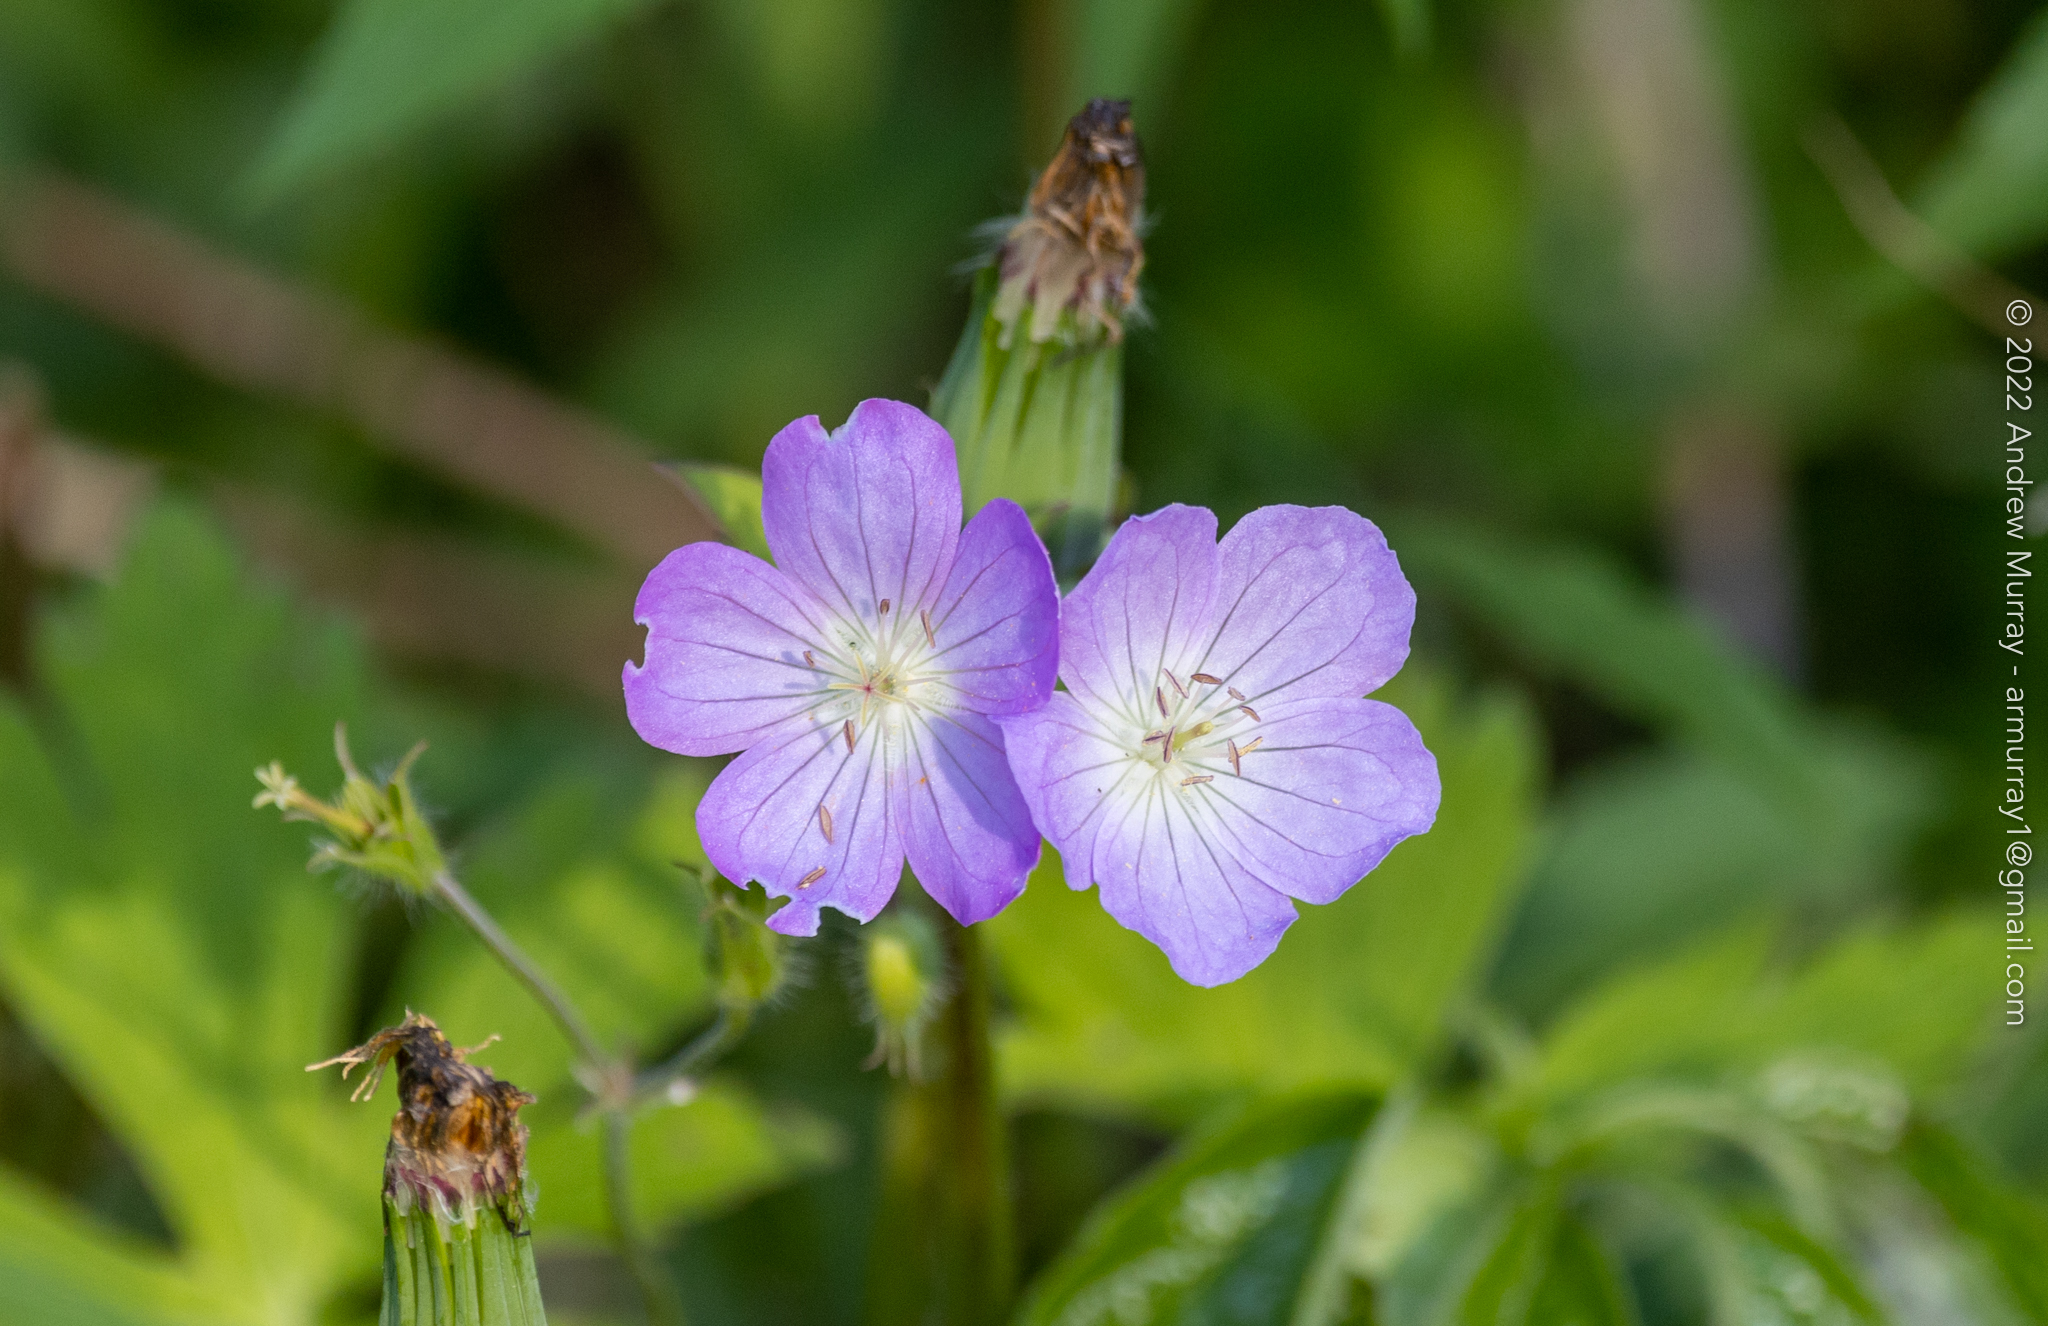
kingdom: Plantae
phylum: Tracheophyta
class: Magnoliopsida
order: Geraniales
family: Geraniaceae
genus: Geranium
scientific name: Geranium maculatum
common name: Spotted geranium
